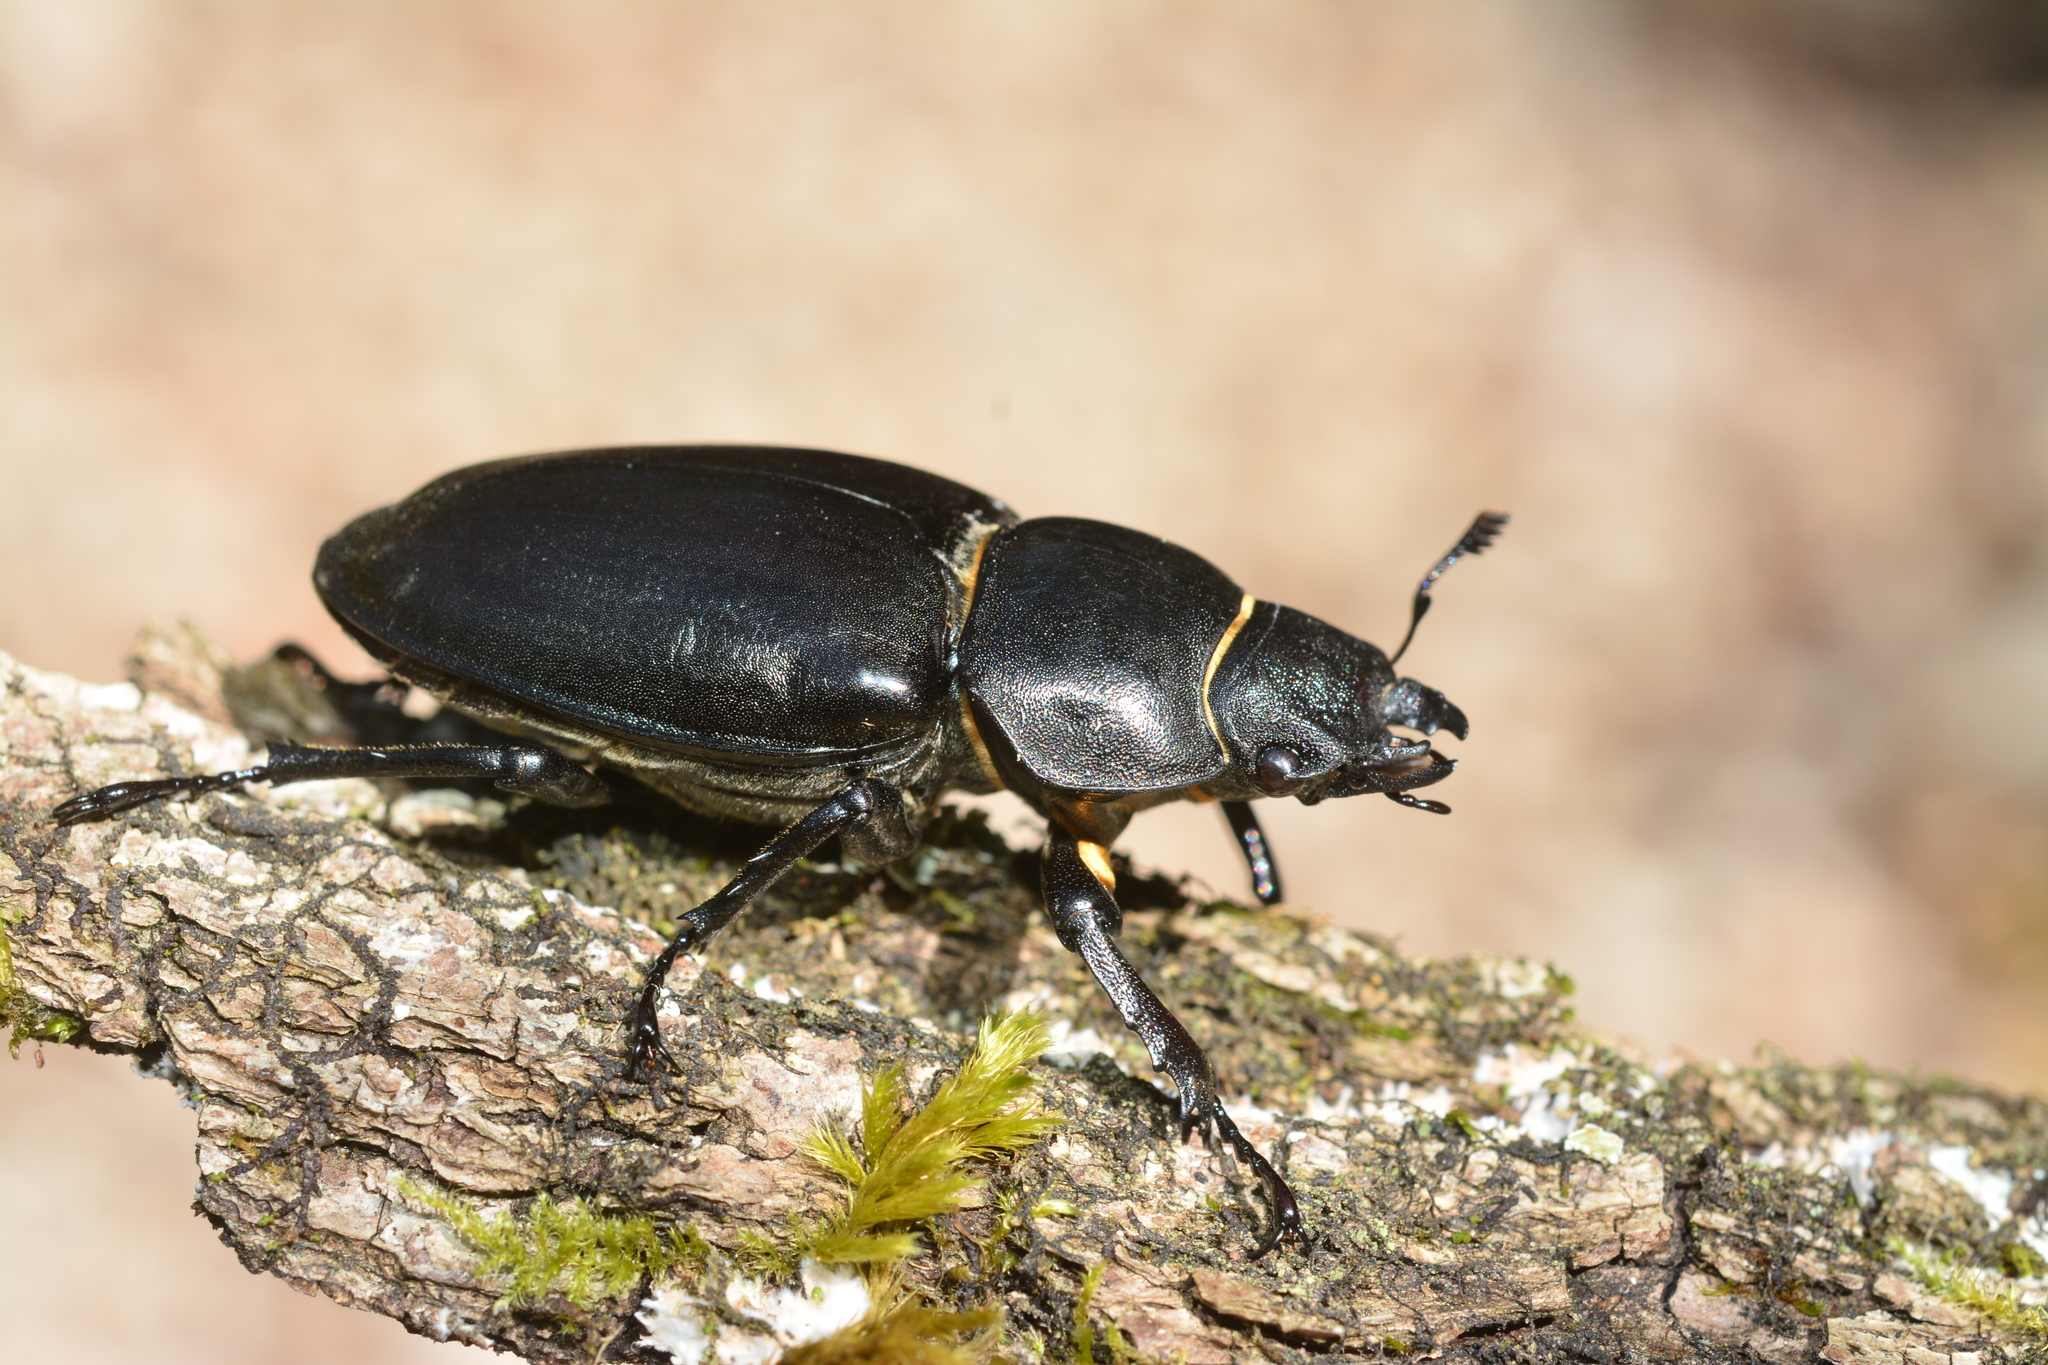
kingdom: Animalia
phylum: Arthropoda
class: Insecta
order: Coleoptera
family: Lucanidae
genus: Lucanus
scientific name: Lucanus cervus
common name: Stag beetle
